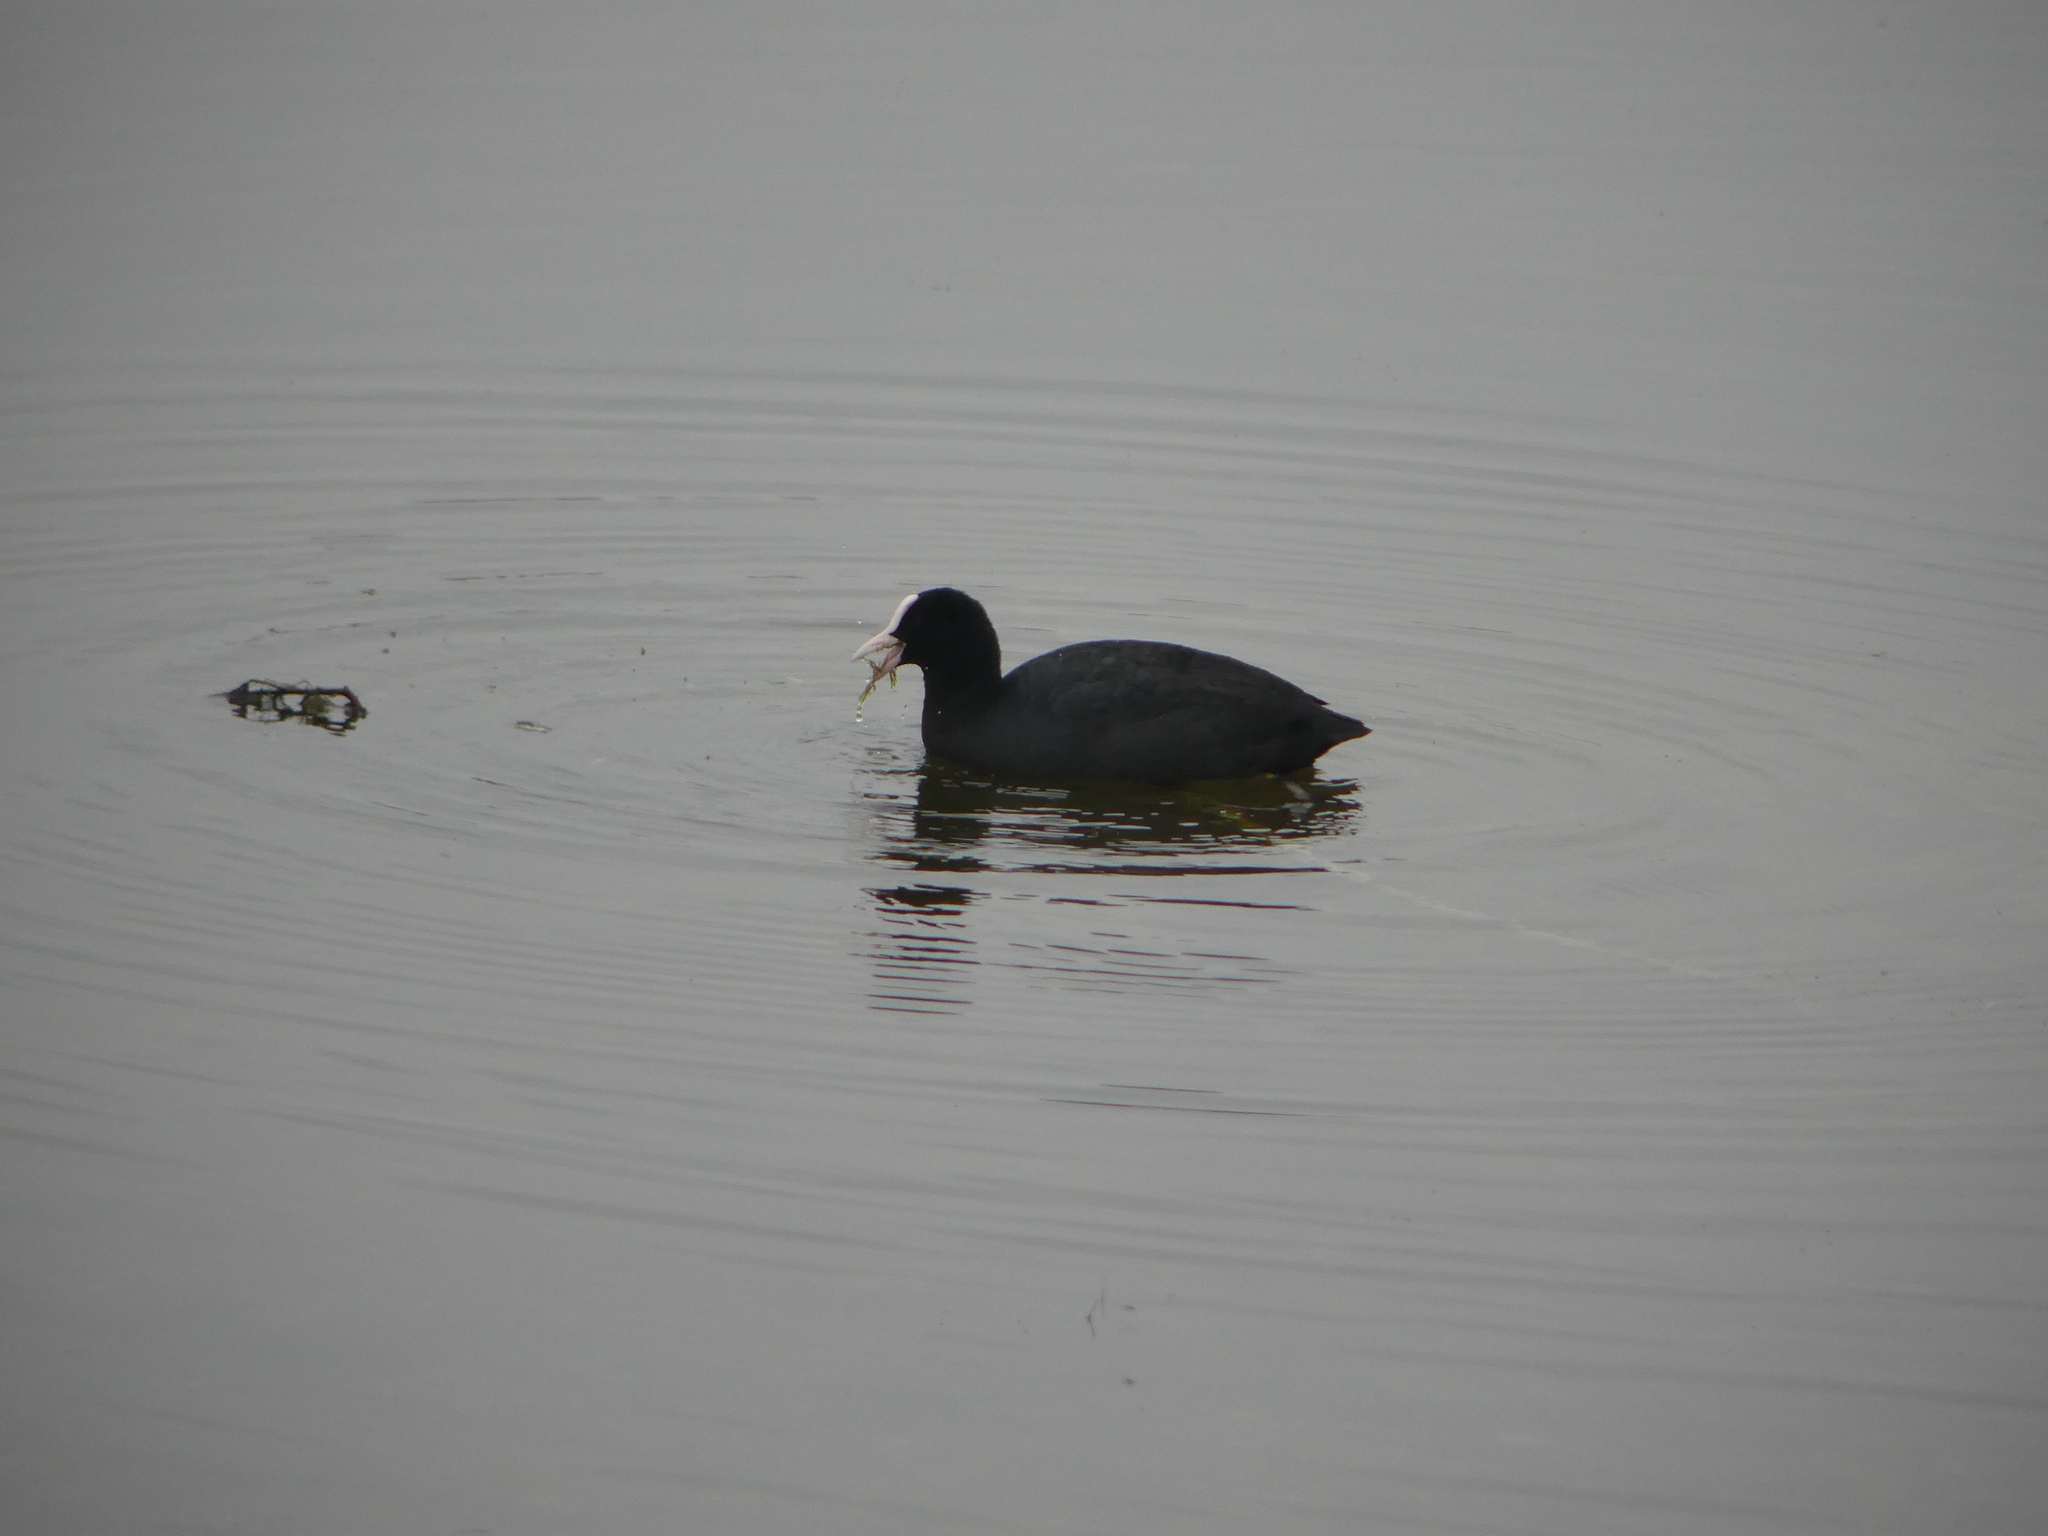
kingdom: Animalia
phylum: Chordata
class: Aves
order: Gruiformes
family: Rallidae
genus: Fulica
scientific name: Fulica atra
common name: Eurasian coot
